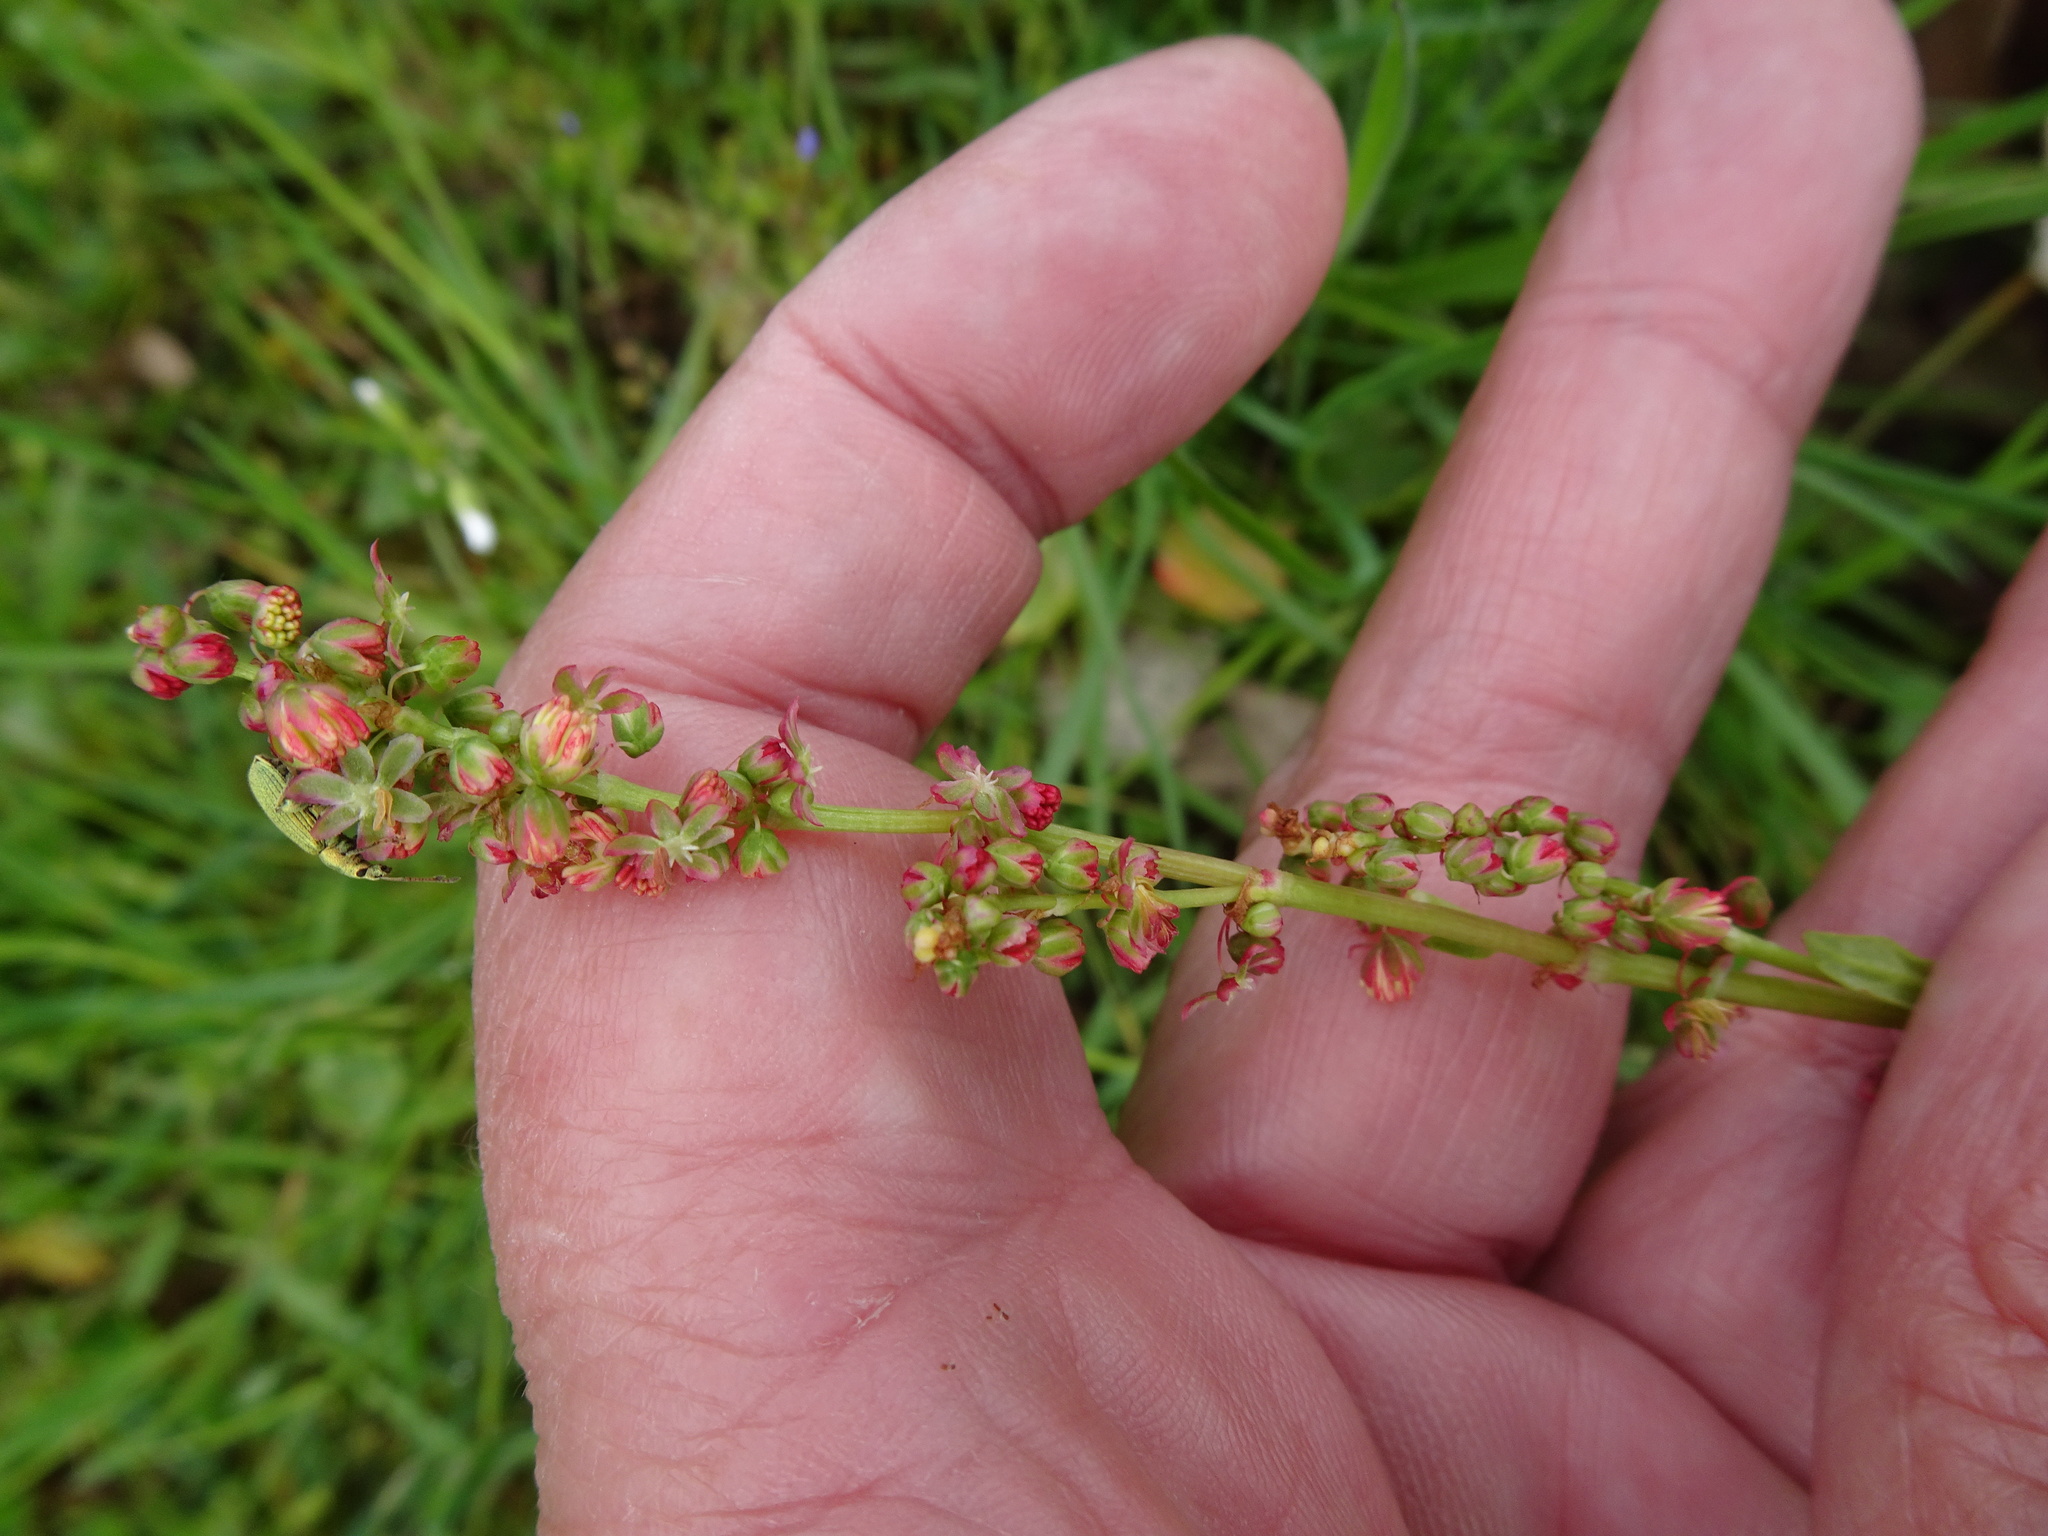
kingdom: Plantae
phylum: Tracheophyta
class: Magnoliopsida
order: Caryophyllales
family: Polygonaceae
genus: Rumex
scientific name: Rumex acetosa
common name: Garden sorrel
